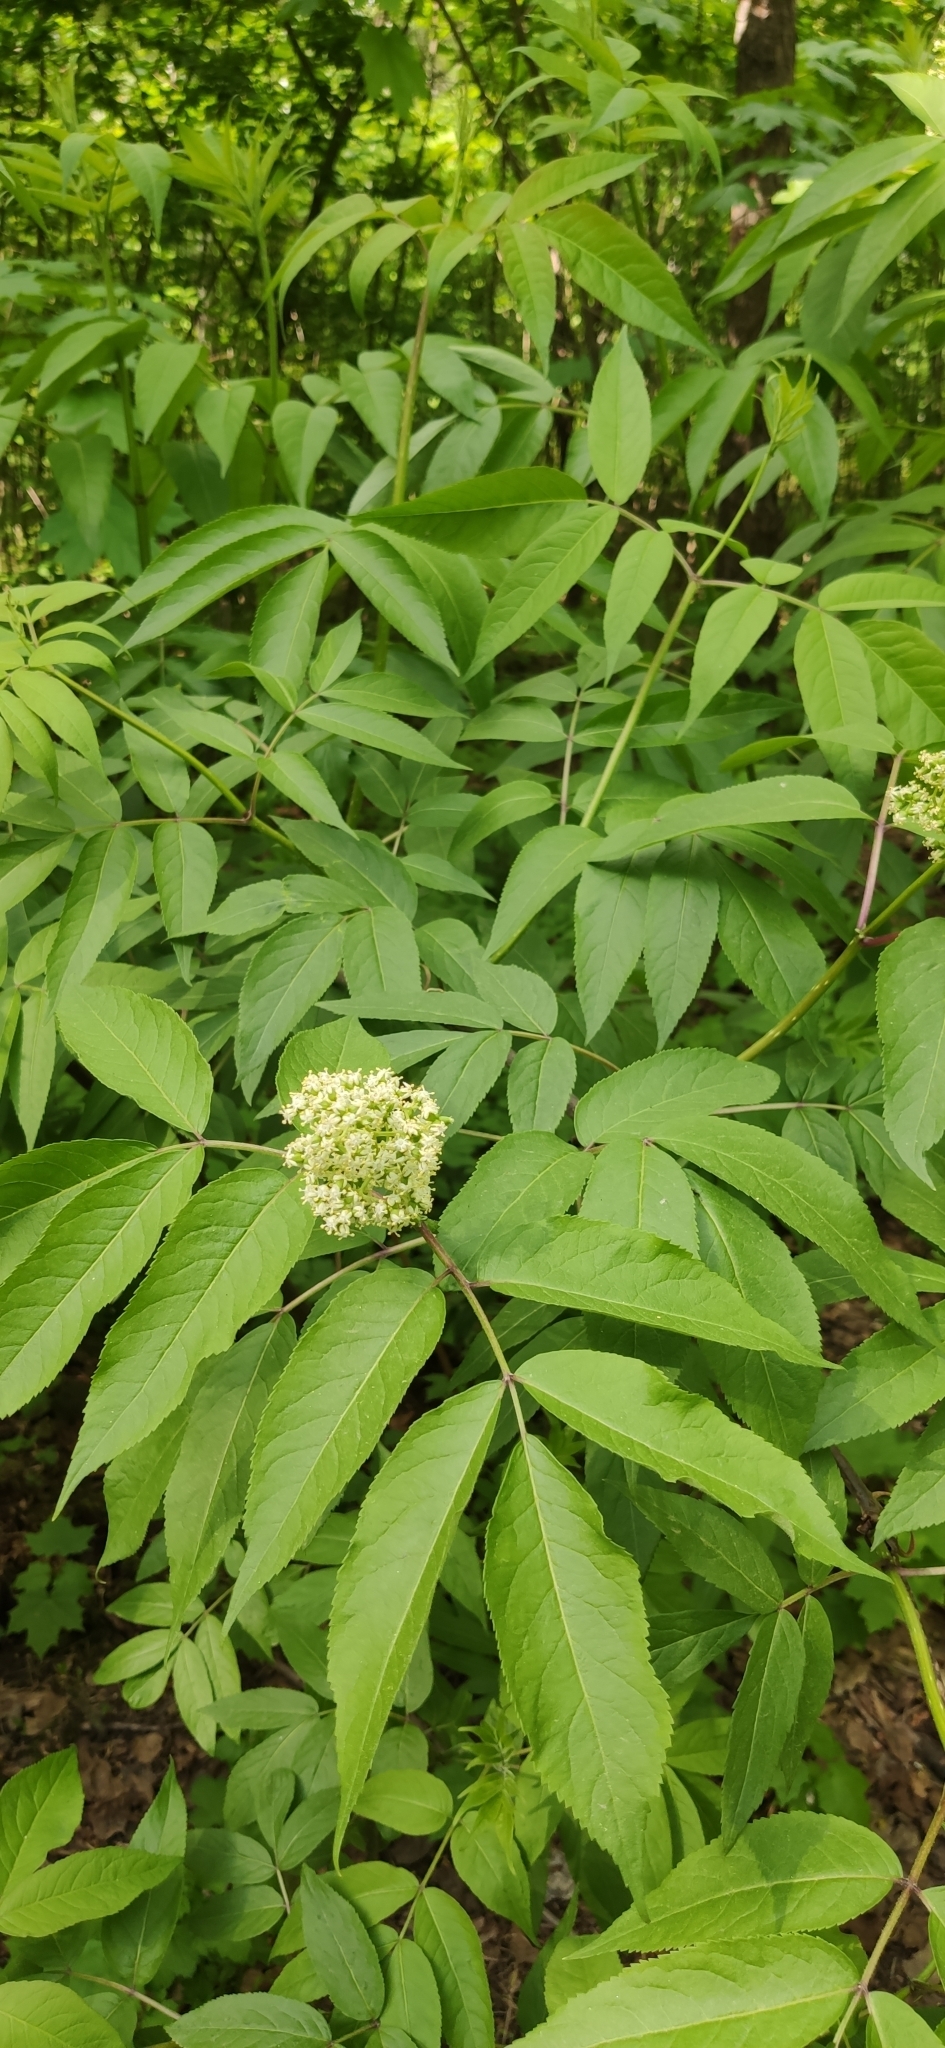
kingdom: Plantae
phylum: Tracheophyta
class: Magnoliopsida
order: Dipsacales
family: Viburnaceae
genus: Sambucus
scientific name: Sambucus racemosa
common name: Red-berried elder
